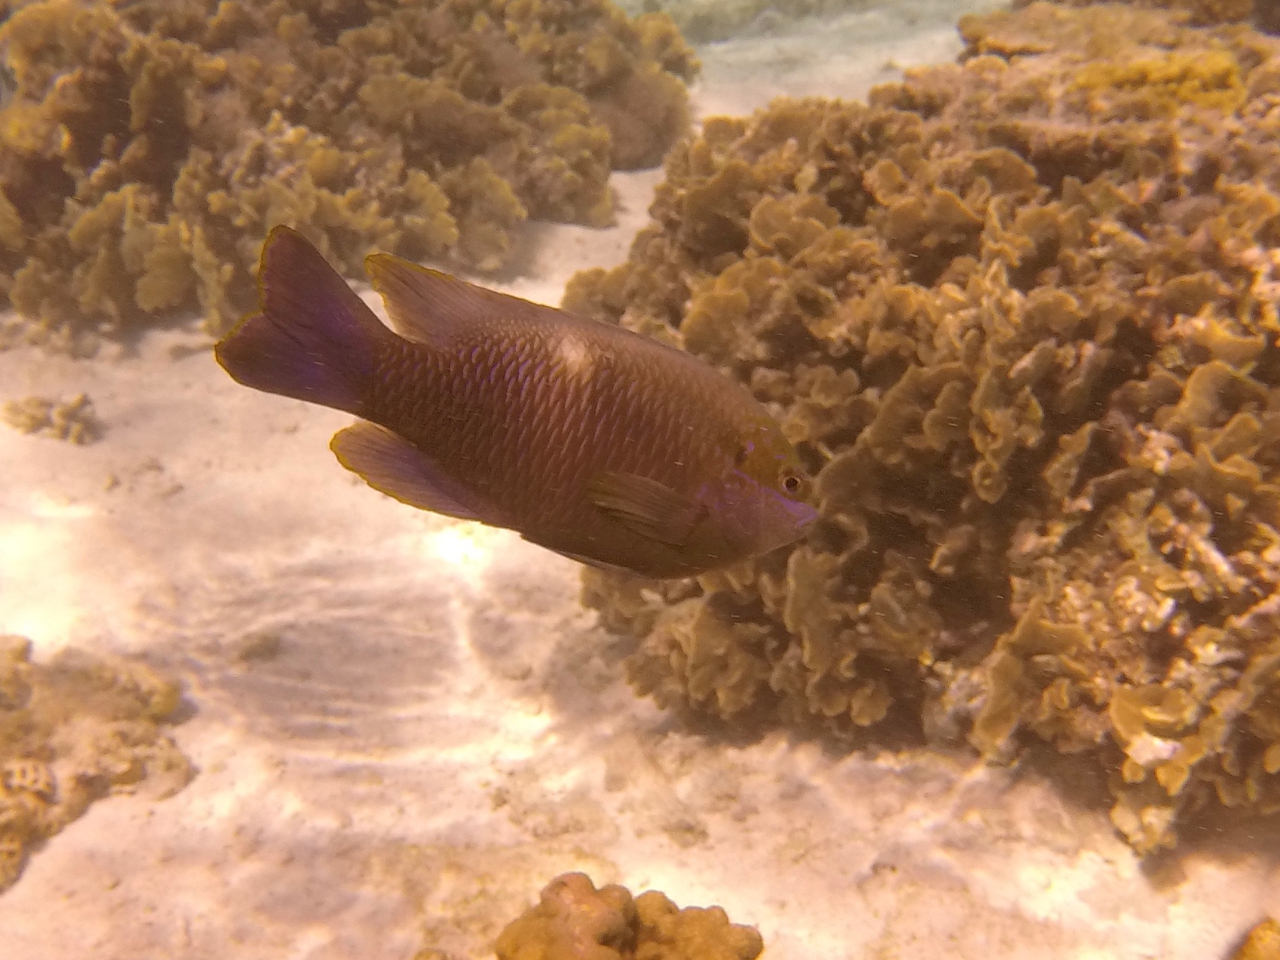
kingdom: Animalia
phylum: Chordata
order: Perciformes
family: Pomacentridae
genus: Dischistodus
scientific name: Dischistodus pseudochrysopoecilus
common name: Monarch damsel
